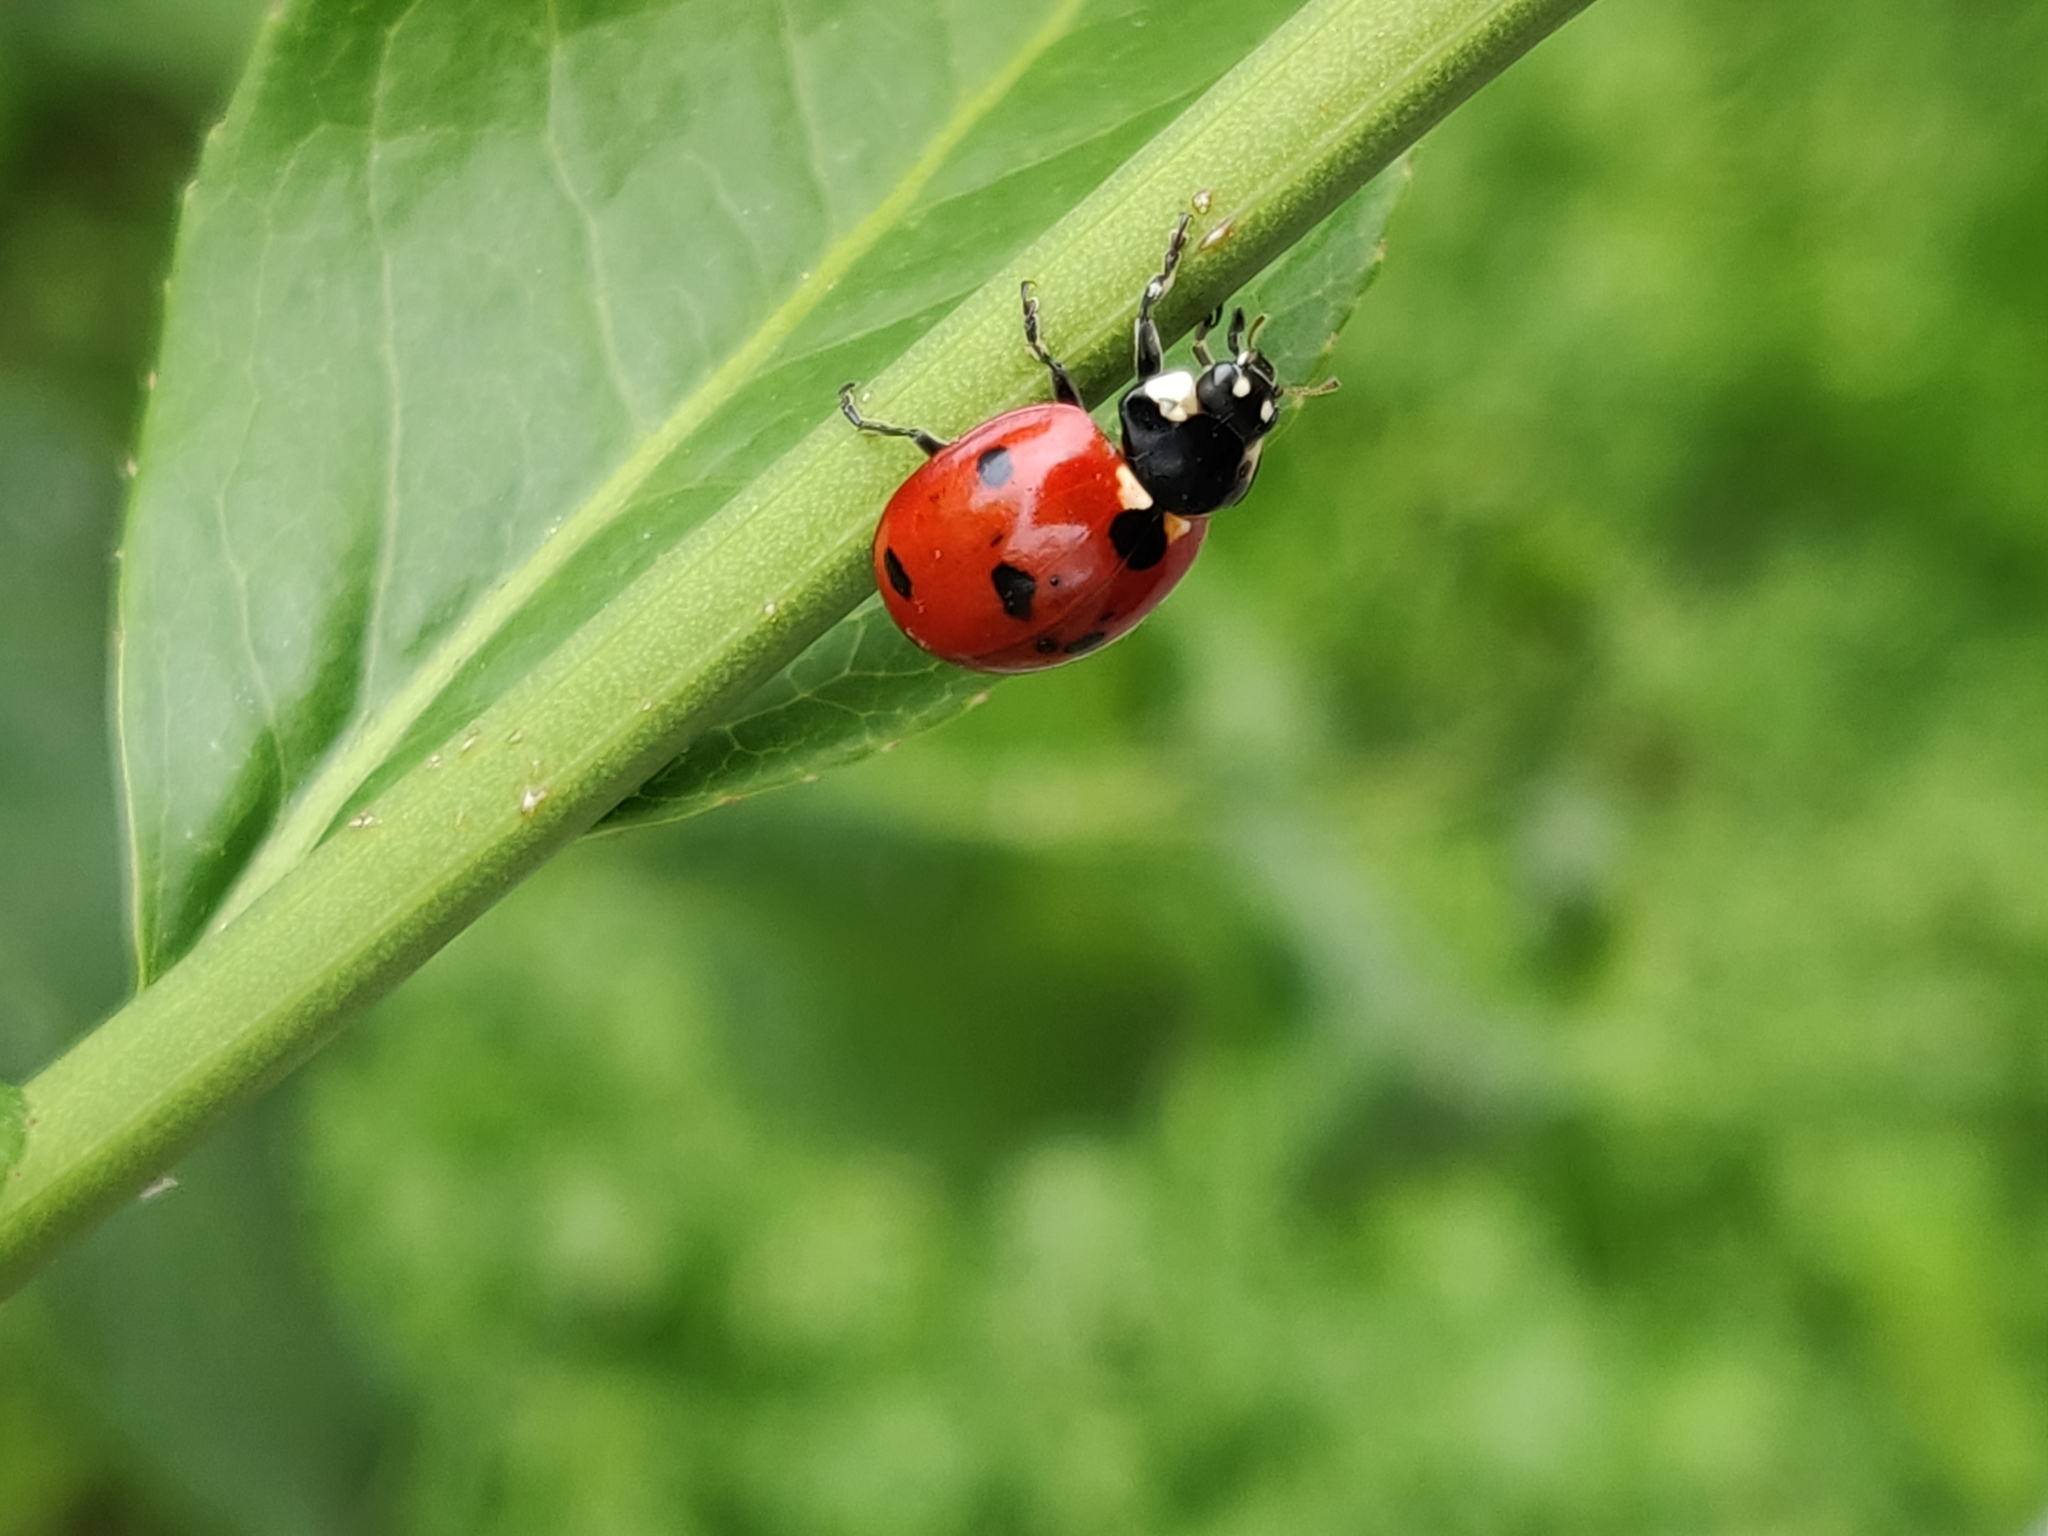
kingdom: Animalia
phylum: Arthropoda
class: Insecta
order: Coleoptera
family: Coccinellidae
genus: Coccinella
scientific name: Coccinella septempunctata
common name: Sevenspotted lady beetle
